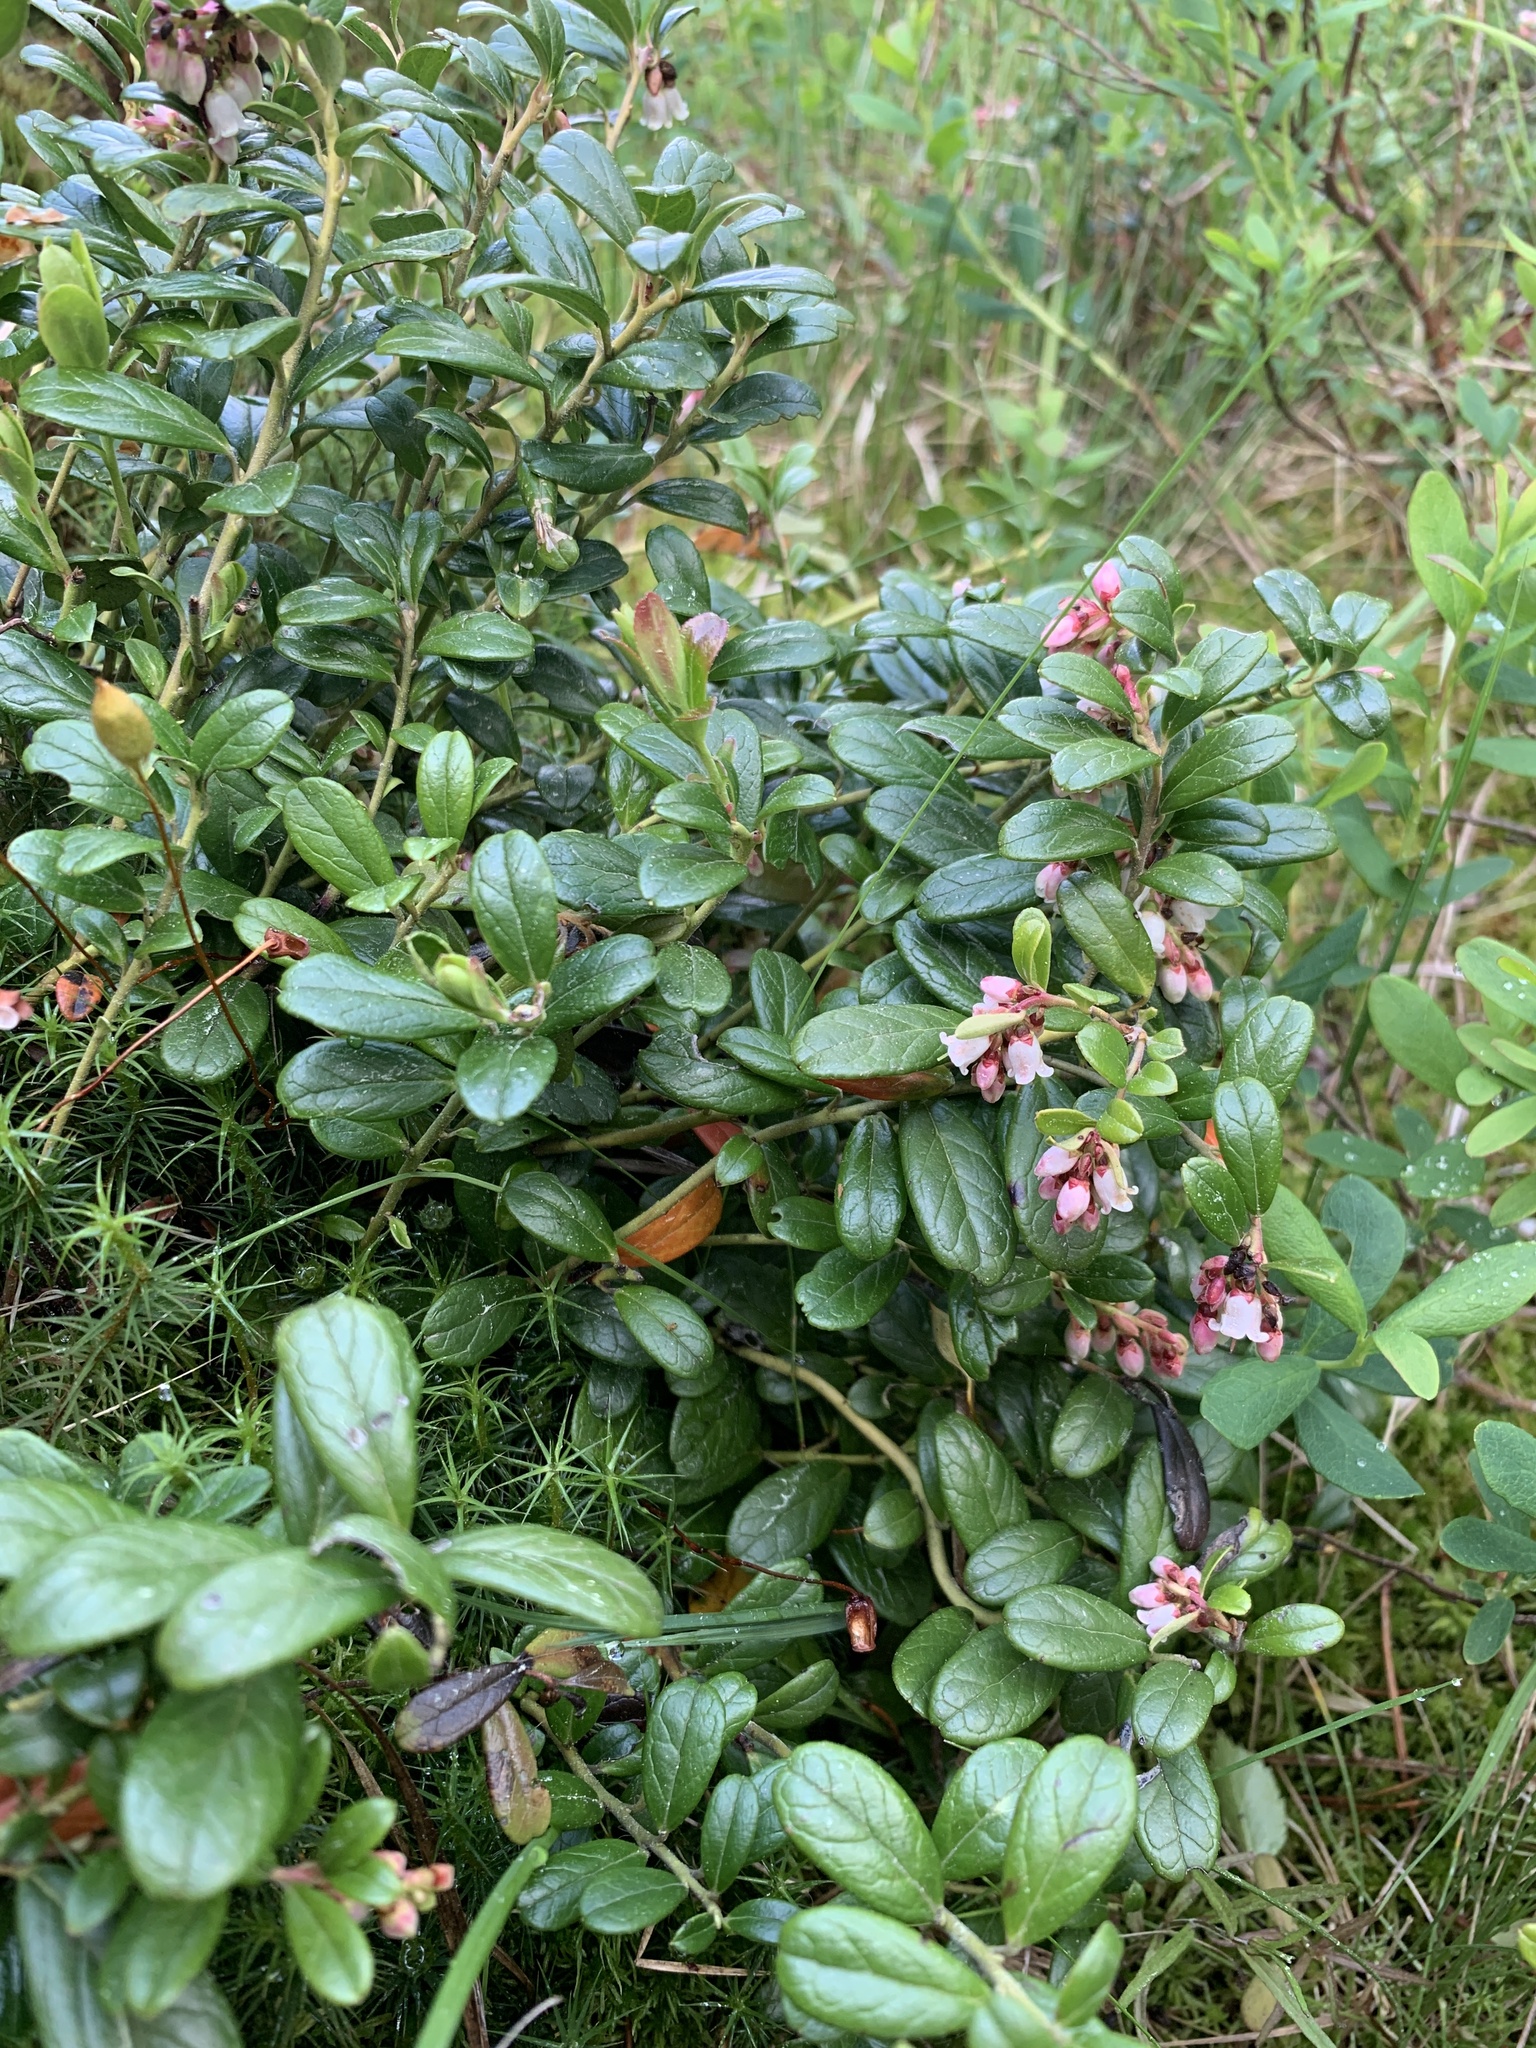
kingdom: Plantae
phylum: Tracheophyta
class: Magnoliopsida
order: Ericales
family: Ericaceae
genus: Vaccinium
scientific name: Vaccinium vitis-idaea
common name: Cowberry
